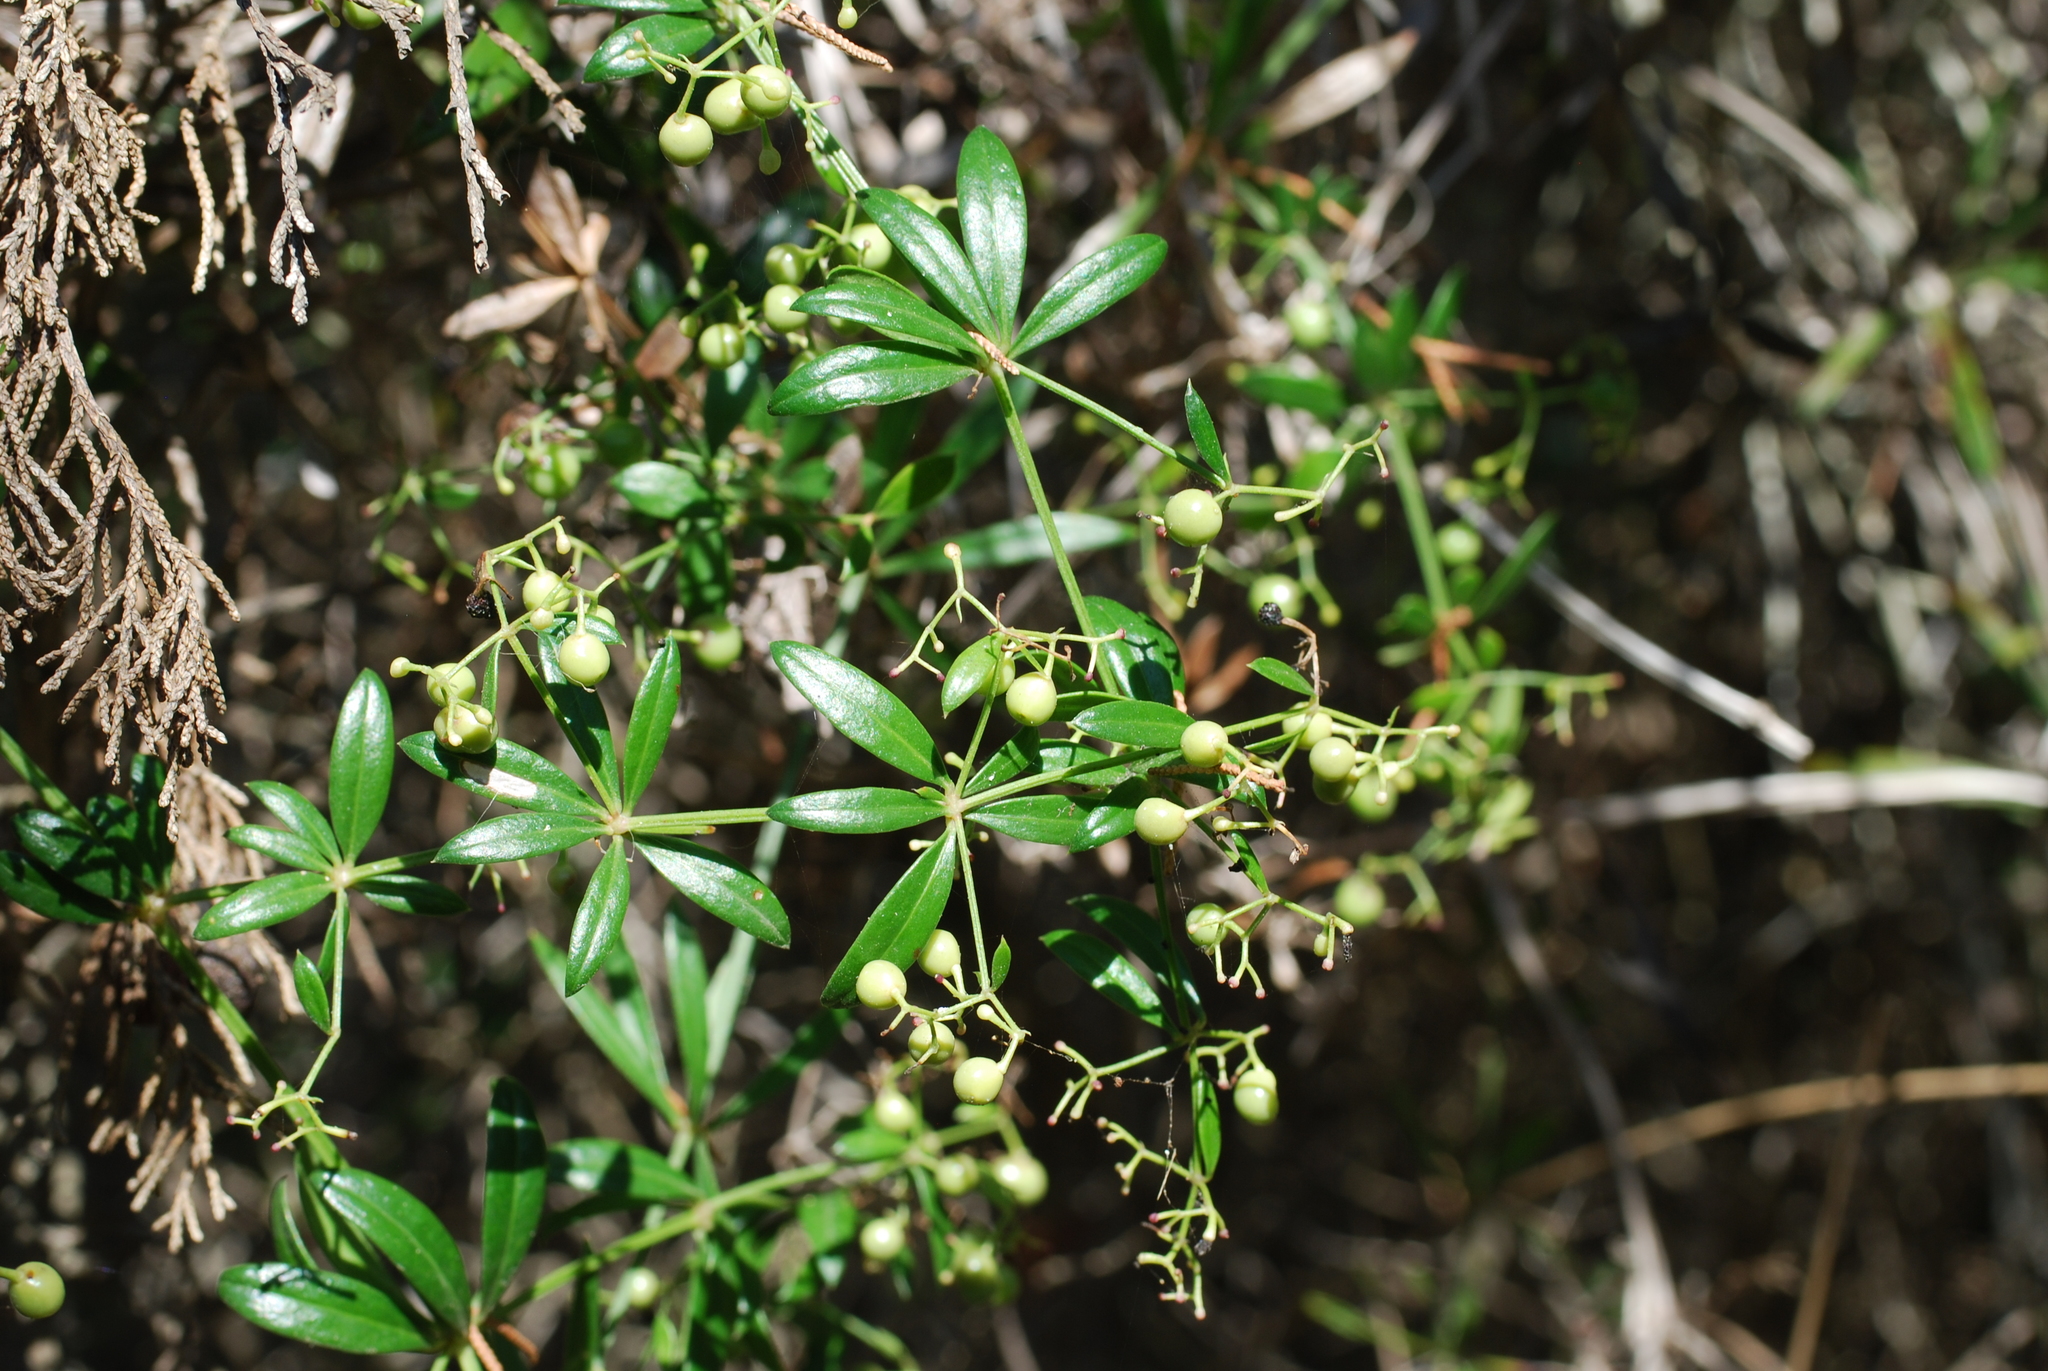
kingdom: Plantae
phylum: Tracheophyta
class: Magnoliopsida
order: Gentianales
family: Rubiaceae
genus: Rubia
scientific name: Rubia peregrina
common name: Wild madder
